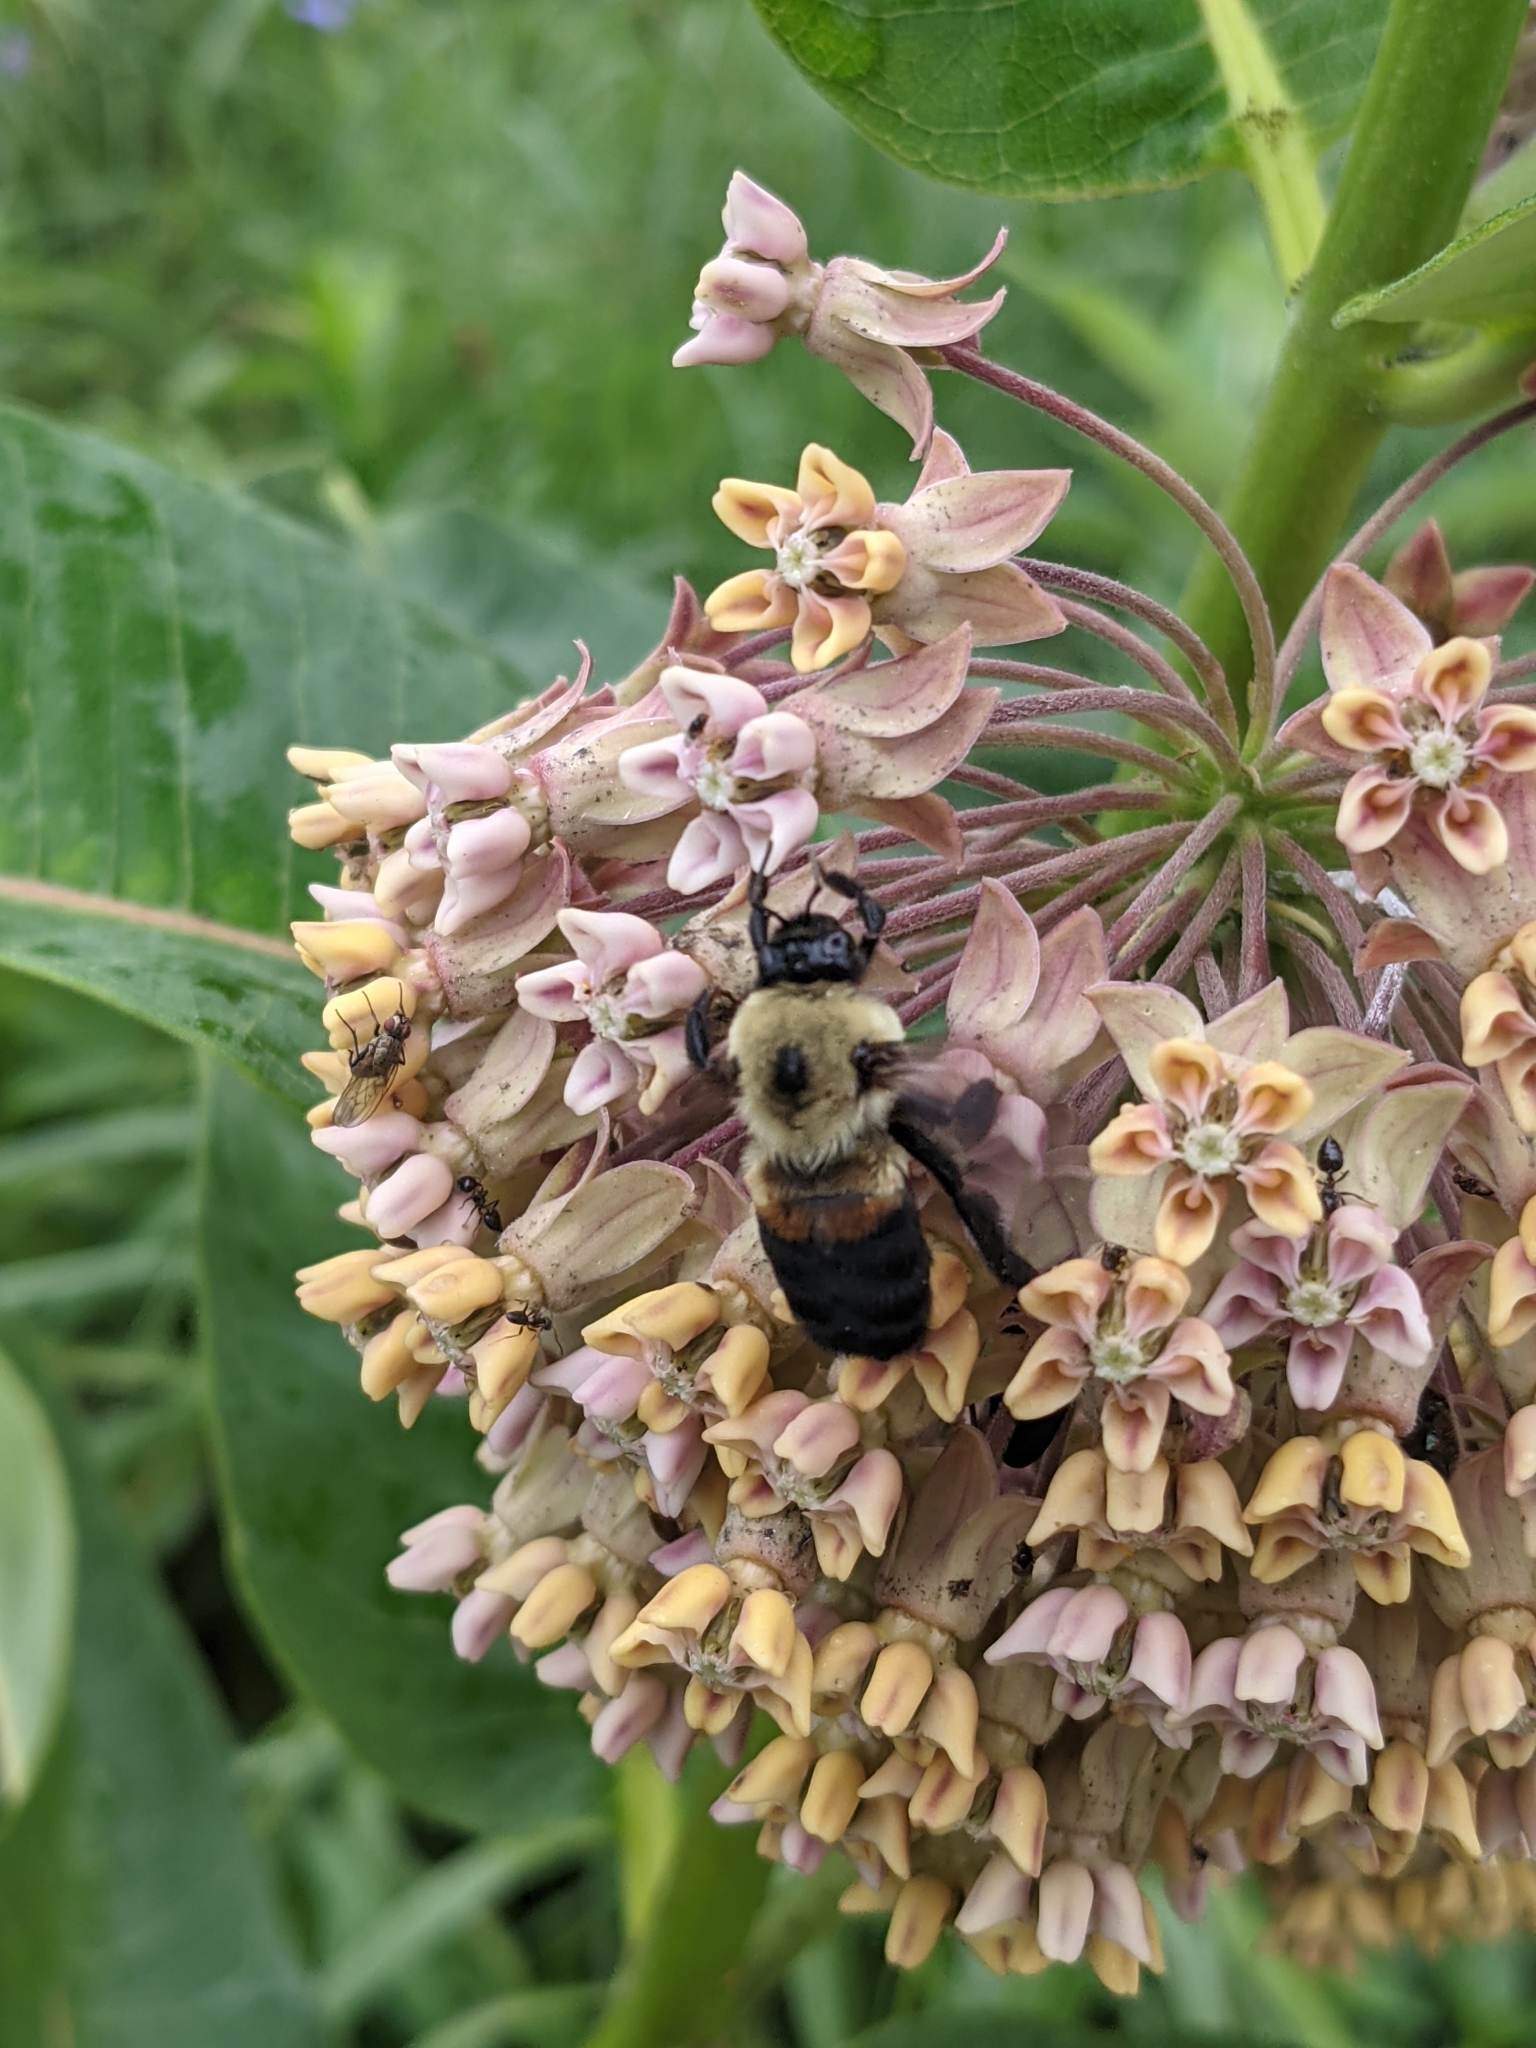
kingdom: Animalia
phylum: Arthropoda
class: Insecta
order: Hymenoptera
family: Apidae
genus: Bombus
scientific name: Bombus griseocollis
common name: Brown-belted bumble bee
